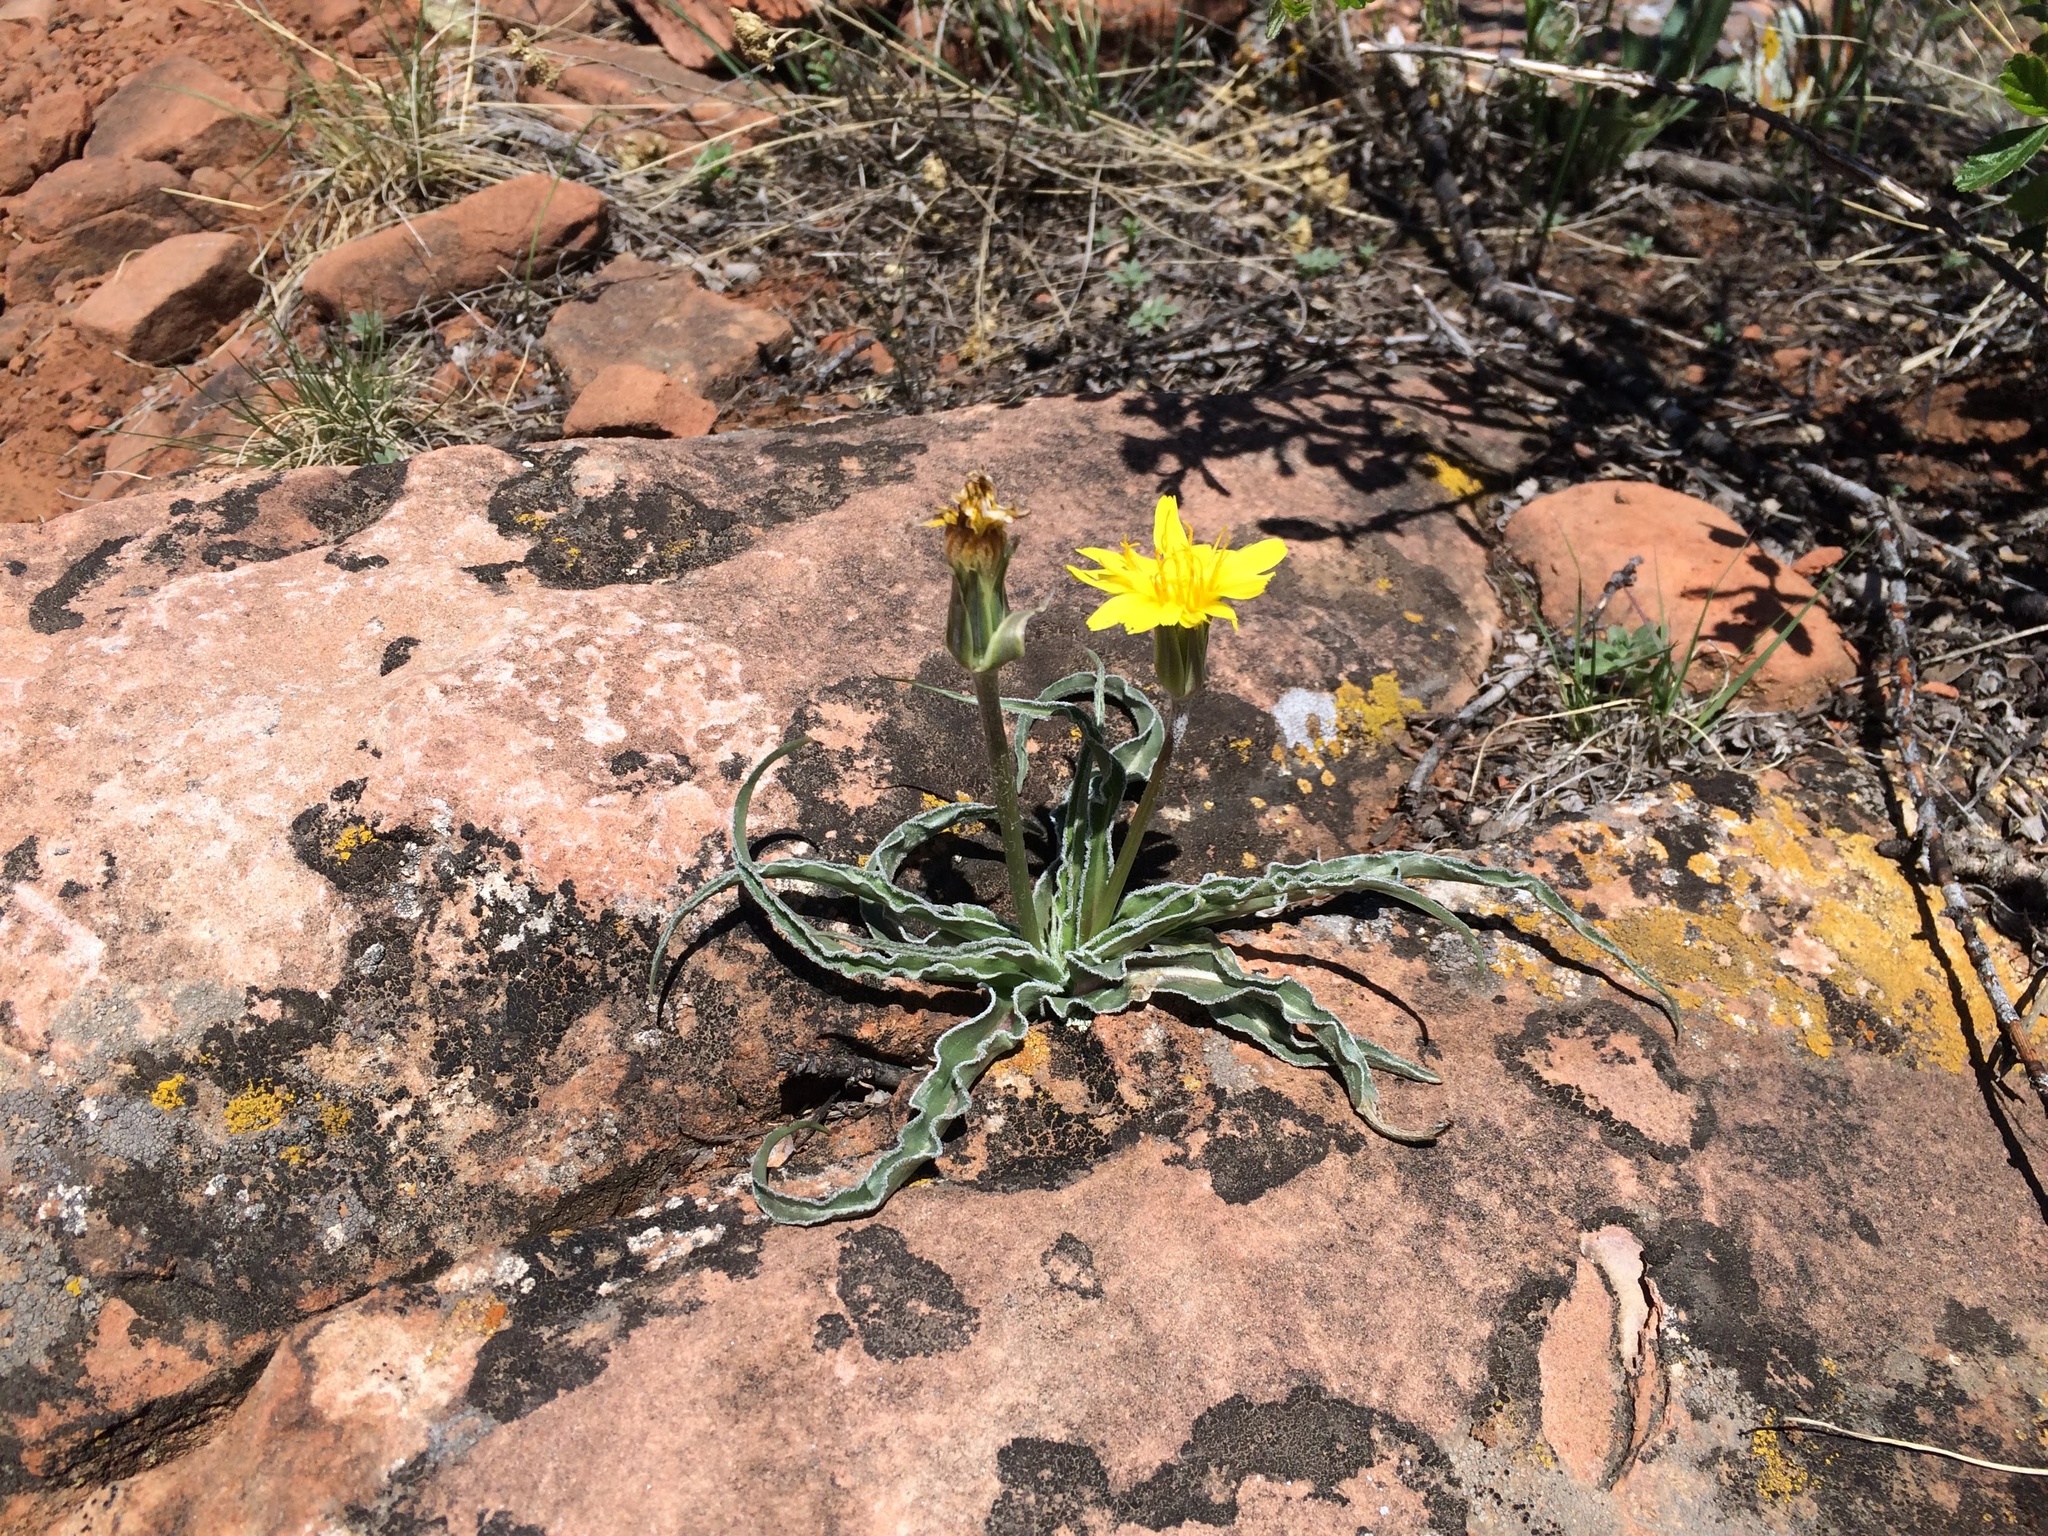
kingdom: Plantae
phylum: Tracheophyta
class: Magnoliopsida
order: Asterales
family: Asteraceae
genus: Microseris
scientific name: Microseris cuspidata
